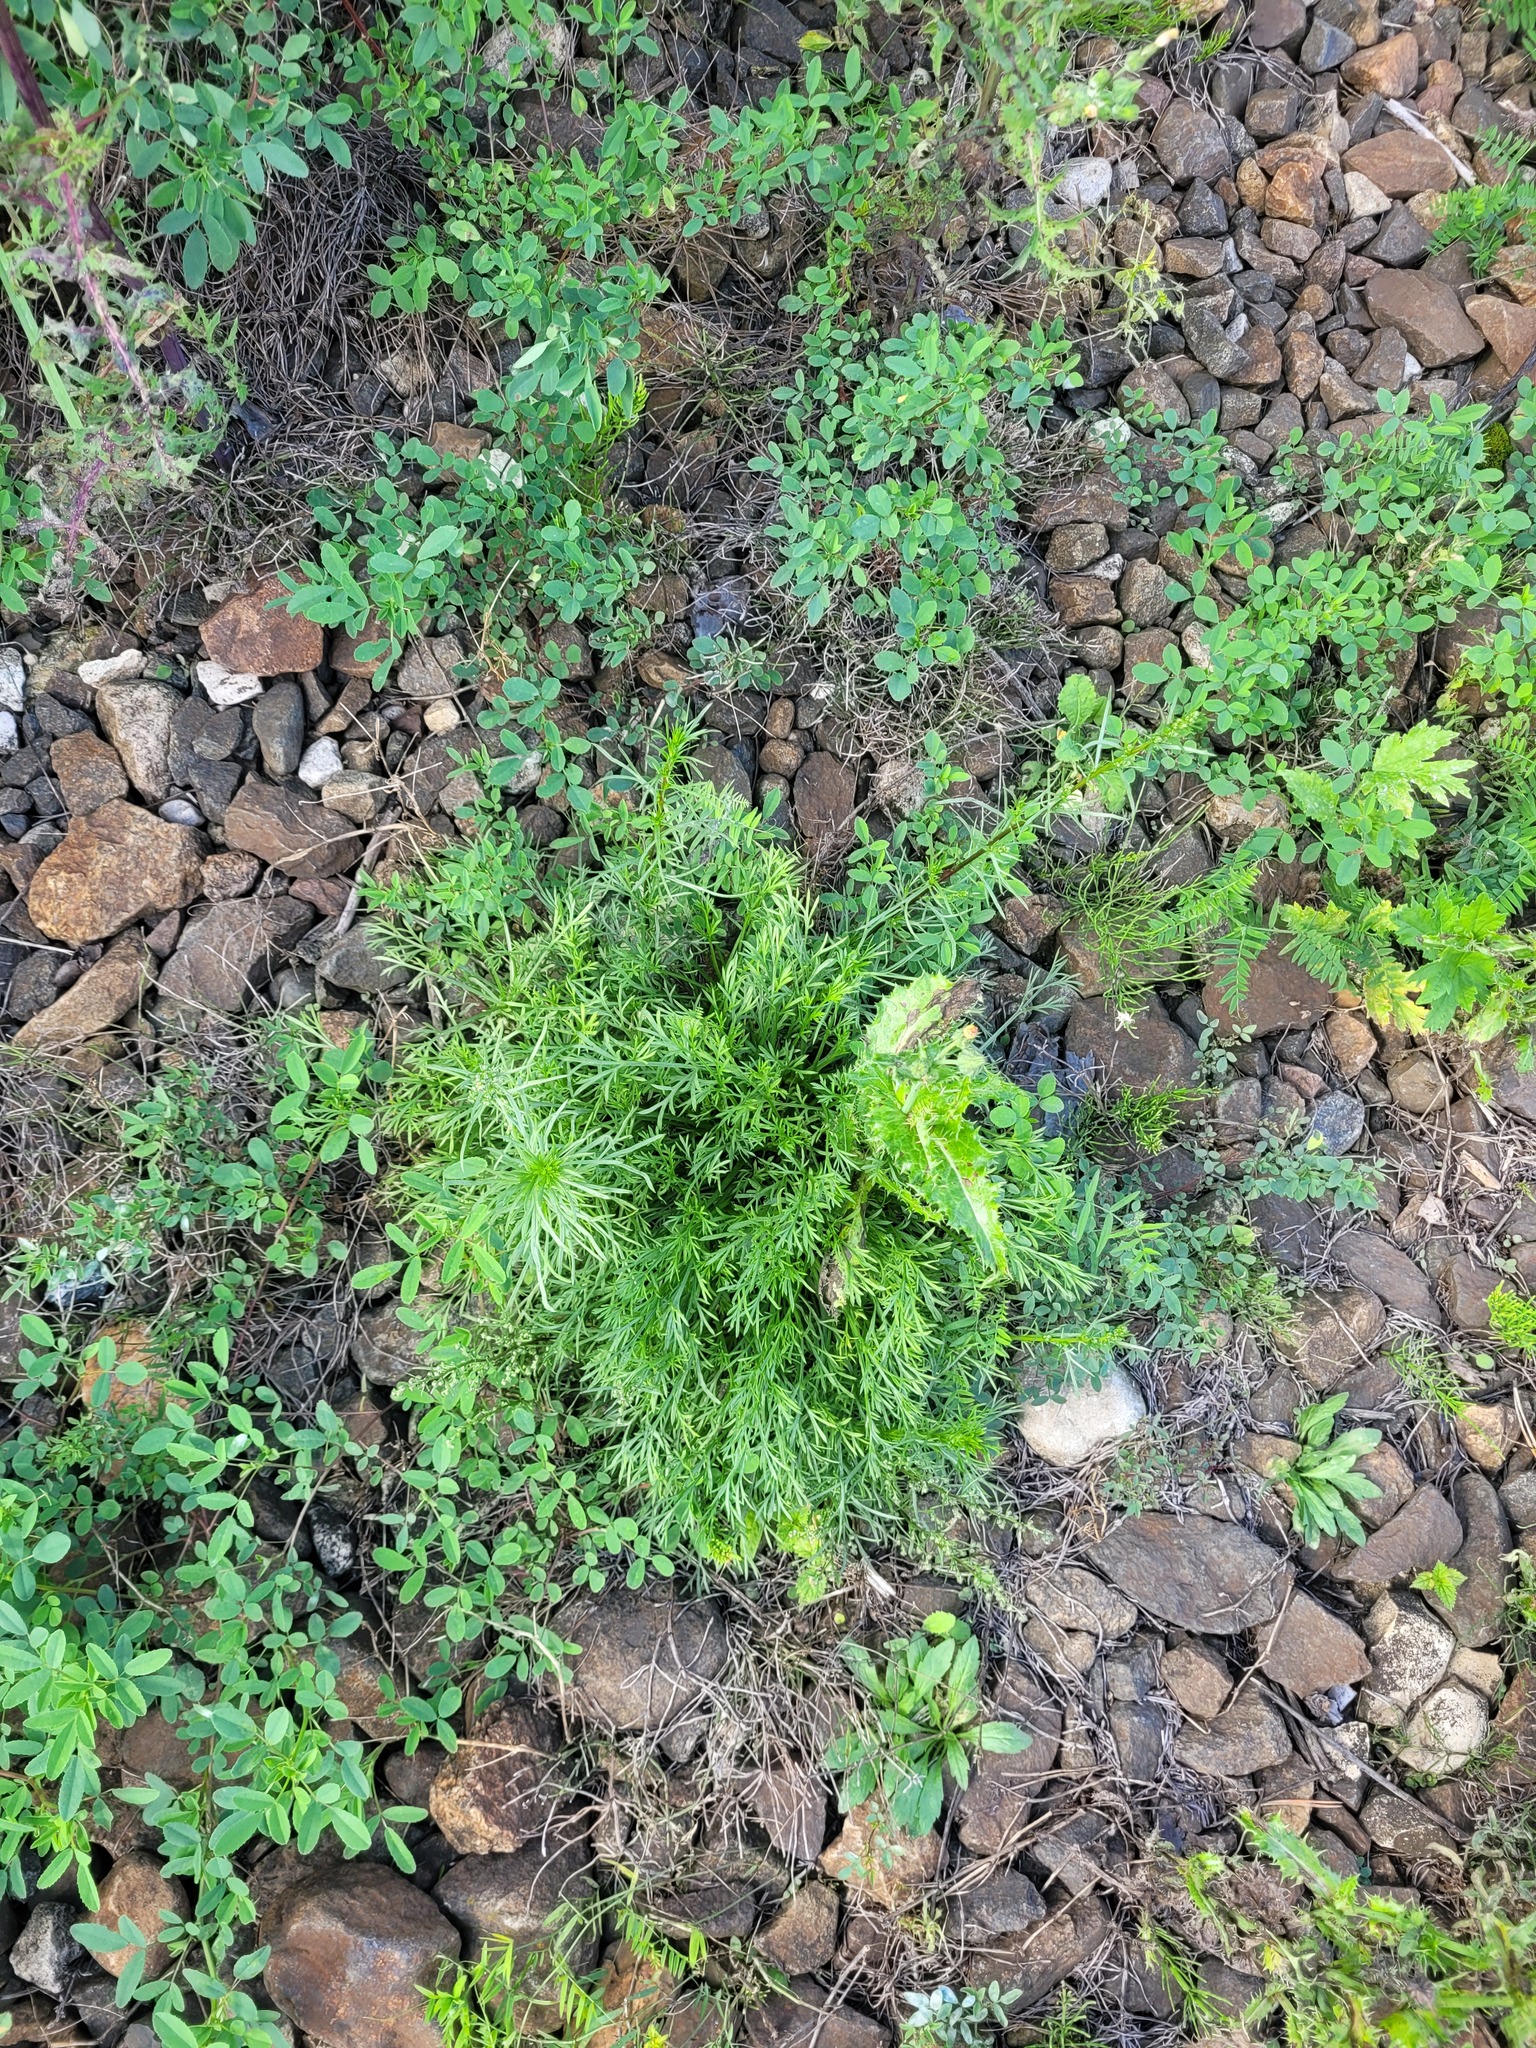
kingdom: Plantae
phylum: Tracheophyta
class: Magnoliopsida
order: Asterales
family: Asteraceae
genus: Artemisia
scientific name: Artemisia campestris
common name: Field wormwood
